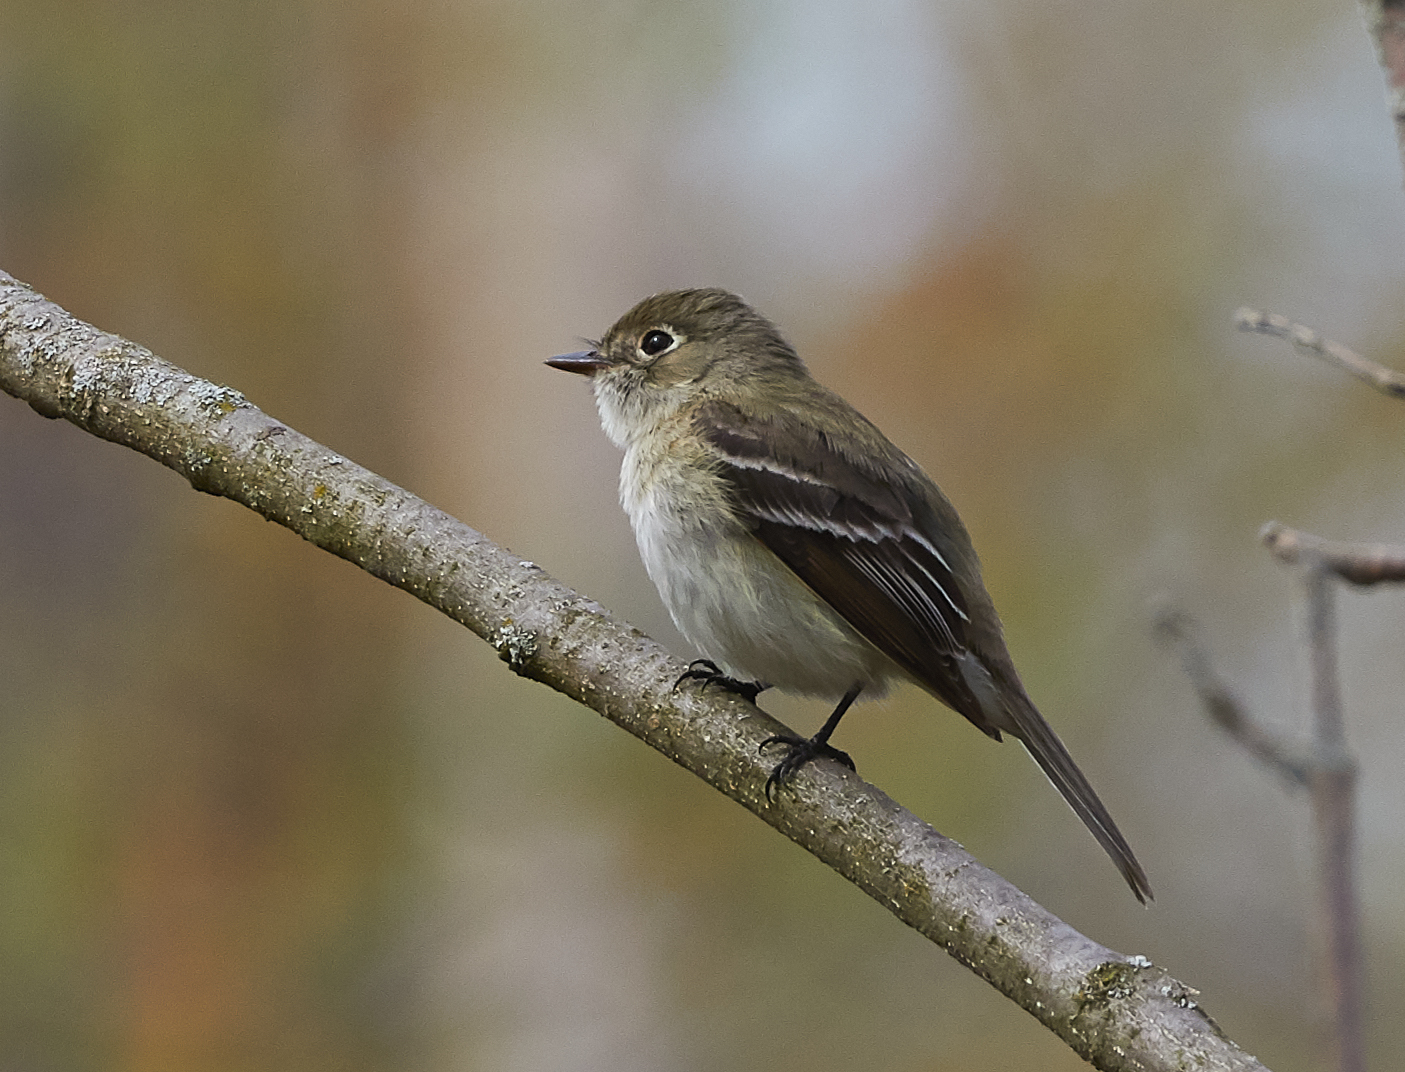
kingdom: Animalia
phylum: Chordata
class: Aves
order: Passeriformes
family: Tyrannidae
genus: Empidonax
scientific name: Empidonax minimus
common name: Least flycatcher
